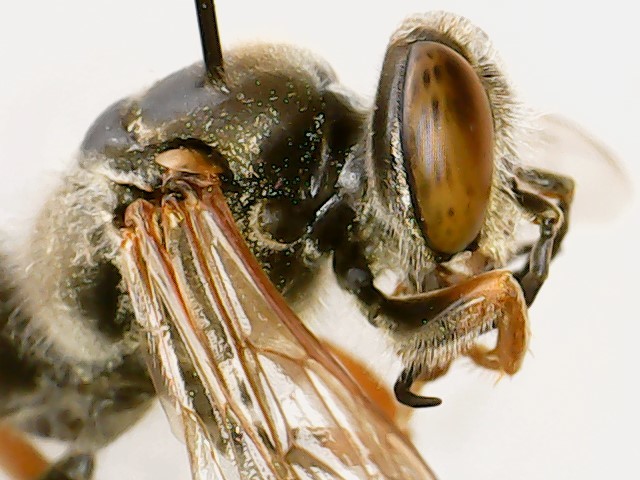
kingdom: Animalia
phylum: Arthropoda
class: Insecta
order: Hymenoptera
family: Crabronidae
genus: Tachytes
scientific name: Tachytes
